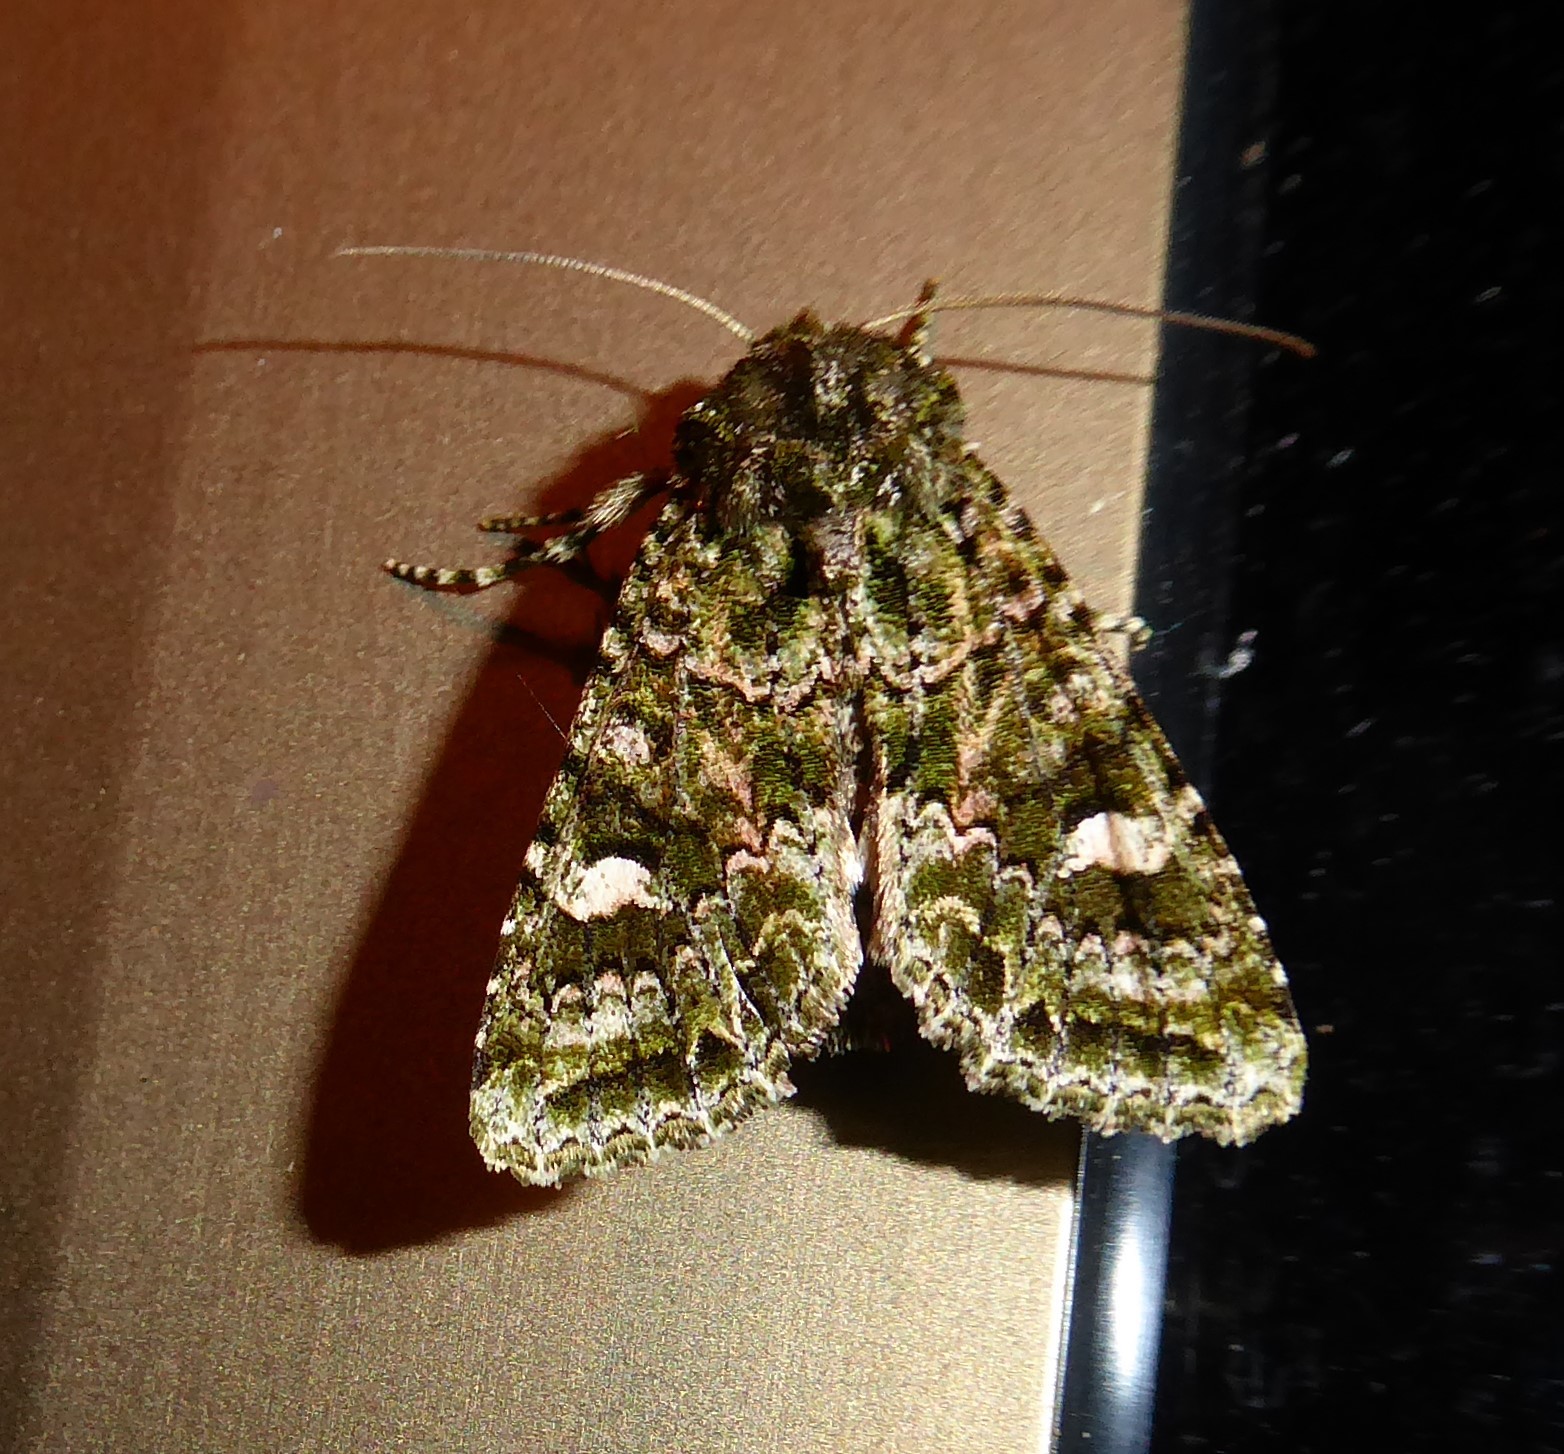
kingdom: Animalia
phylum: Arthropoda
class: Insecta
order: Lepidoptera
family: Noctuidae
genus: Ichneutica
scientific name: Ichneutica
